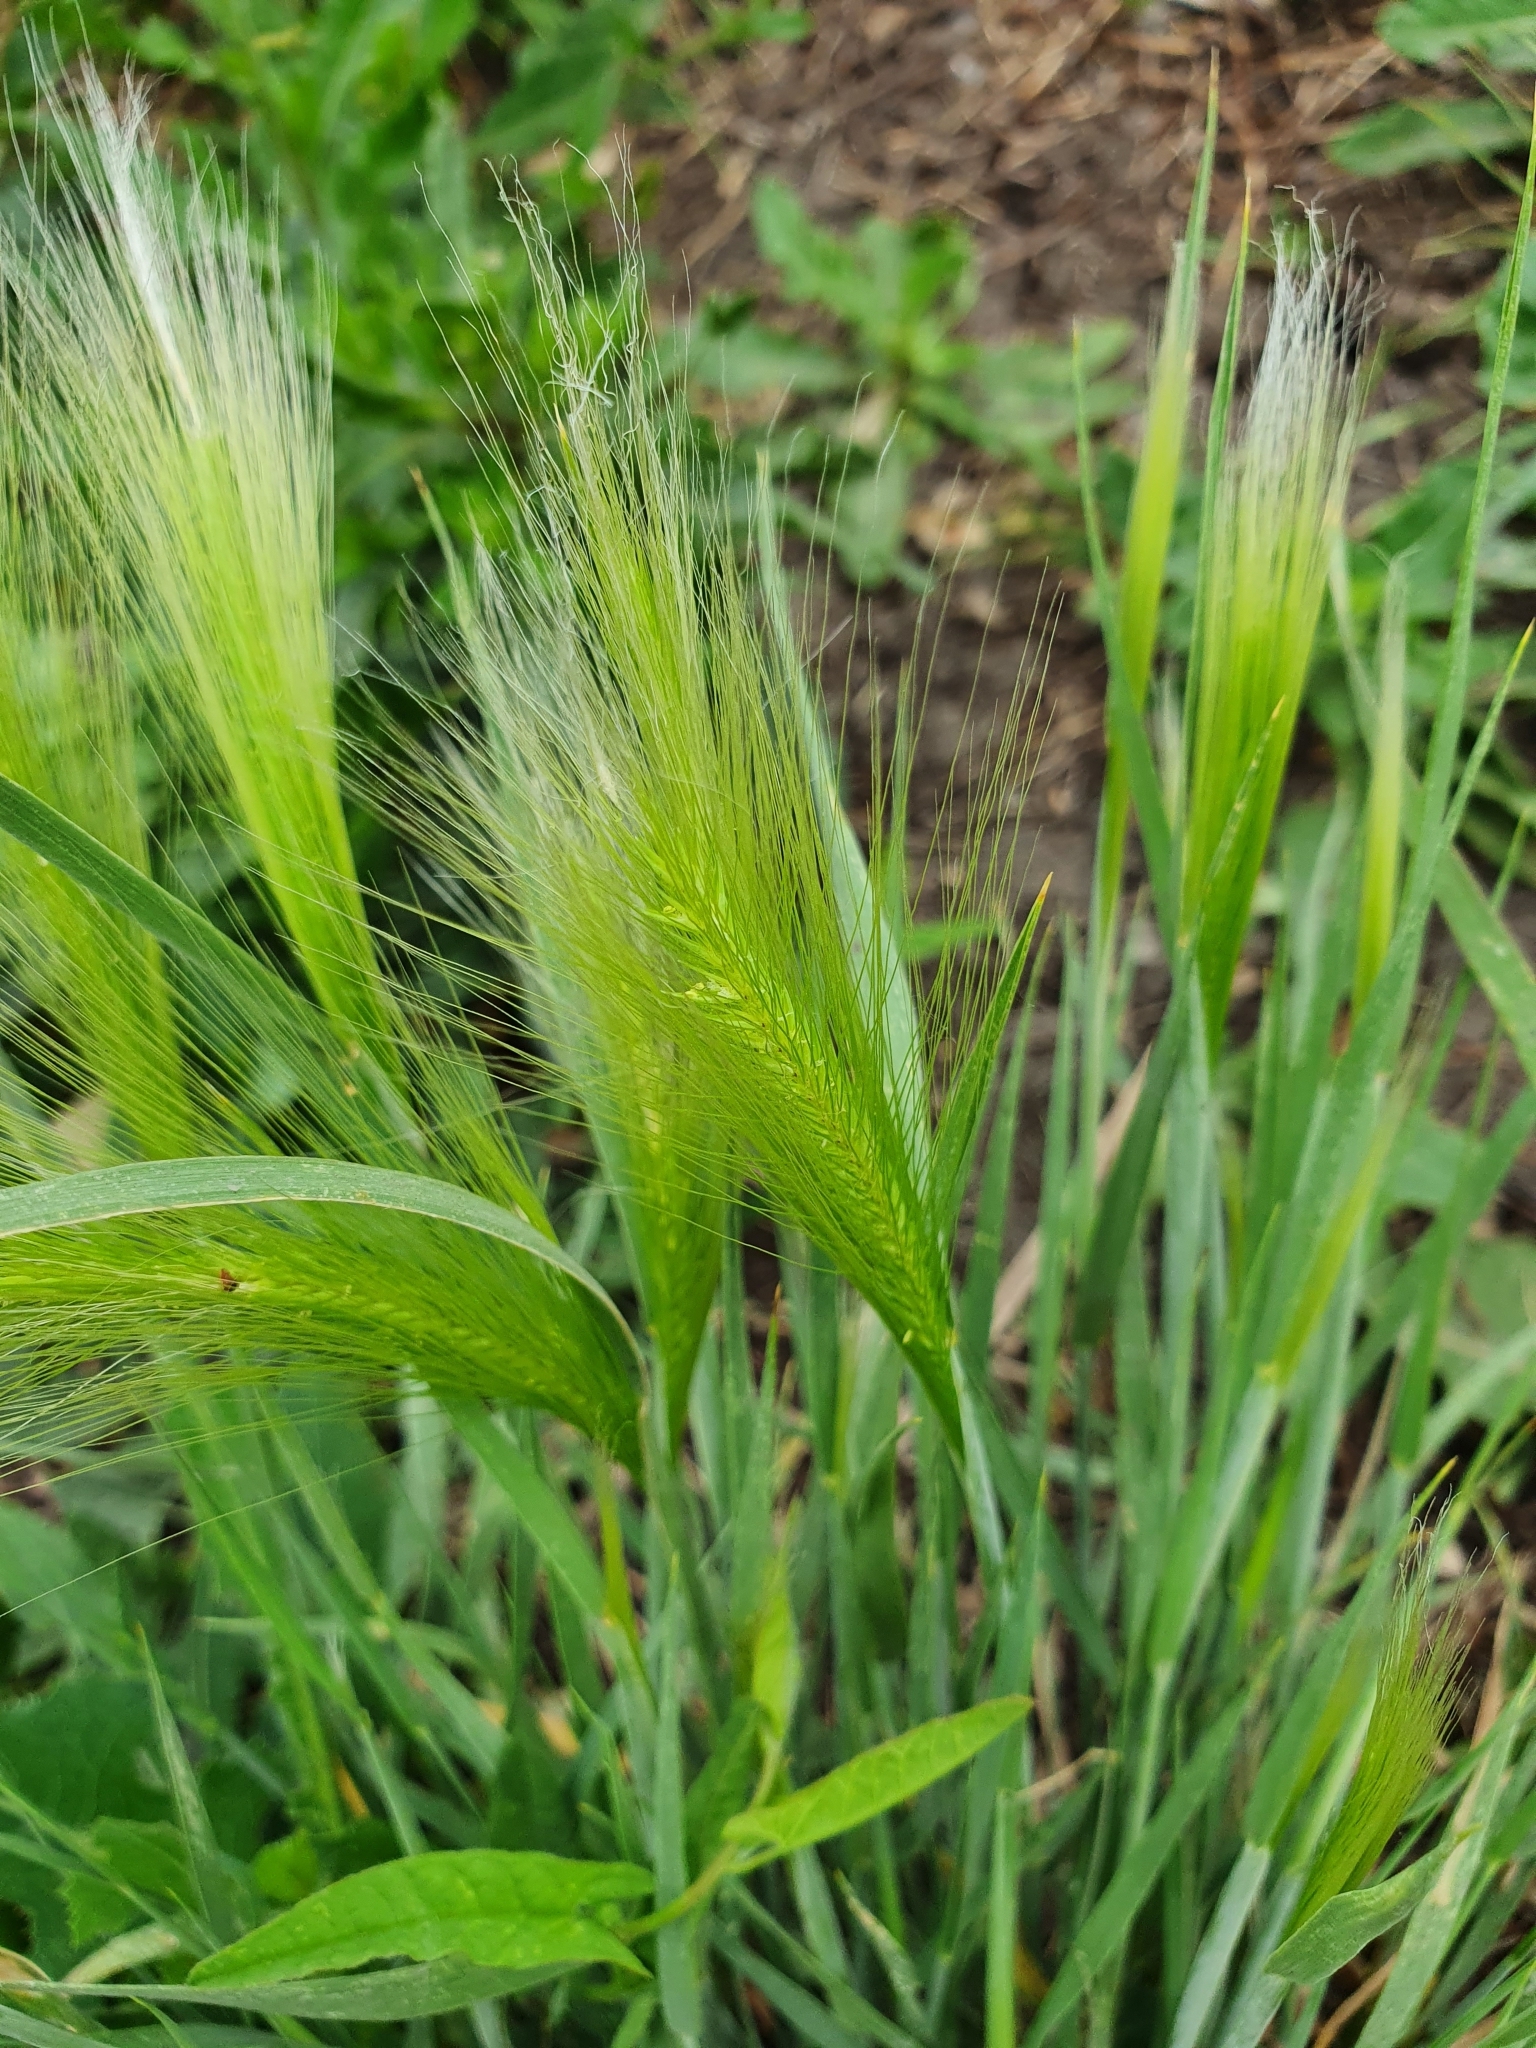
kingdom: Plantae
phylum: Tracheophyta
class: Liliopsida
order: Poales
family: Poaceae
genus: Hordeum
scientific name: Hordeum jubatum
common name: Foxtail barley
